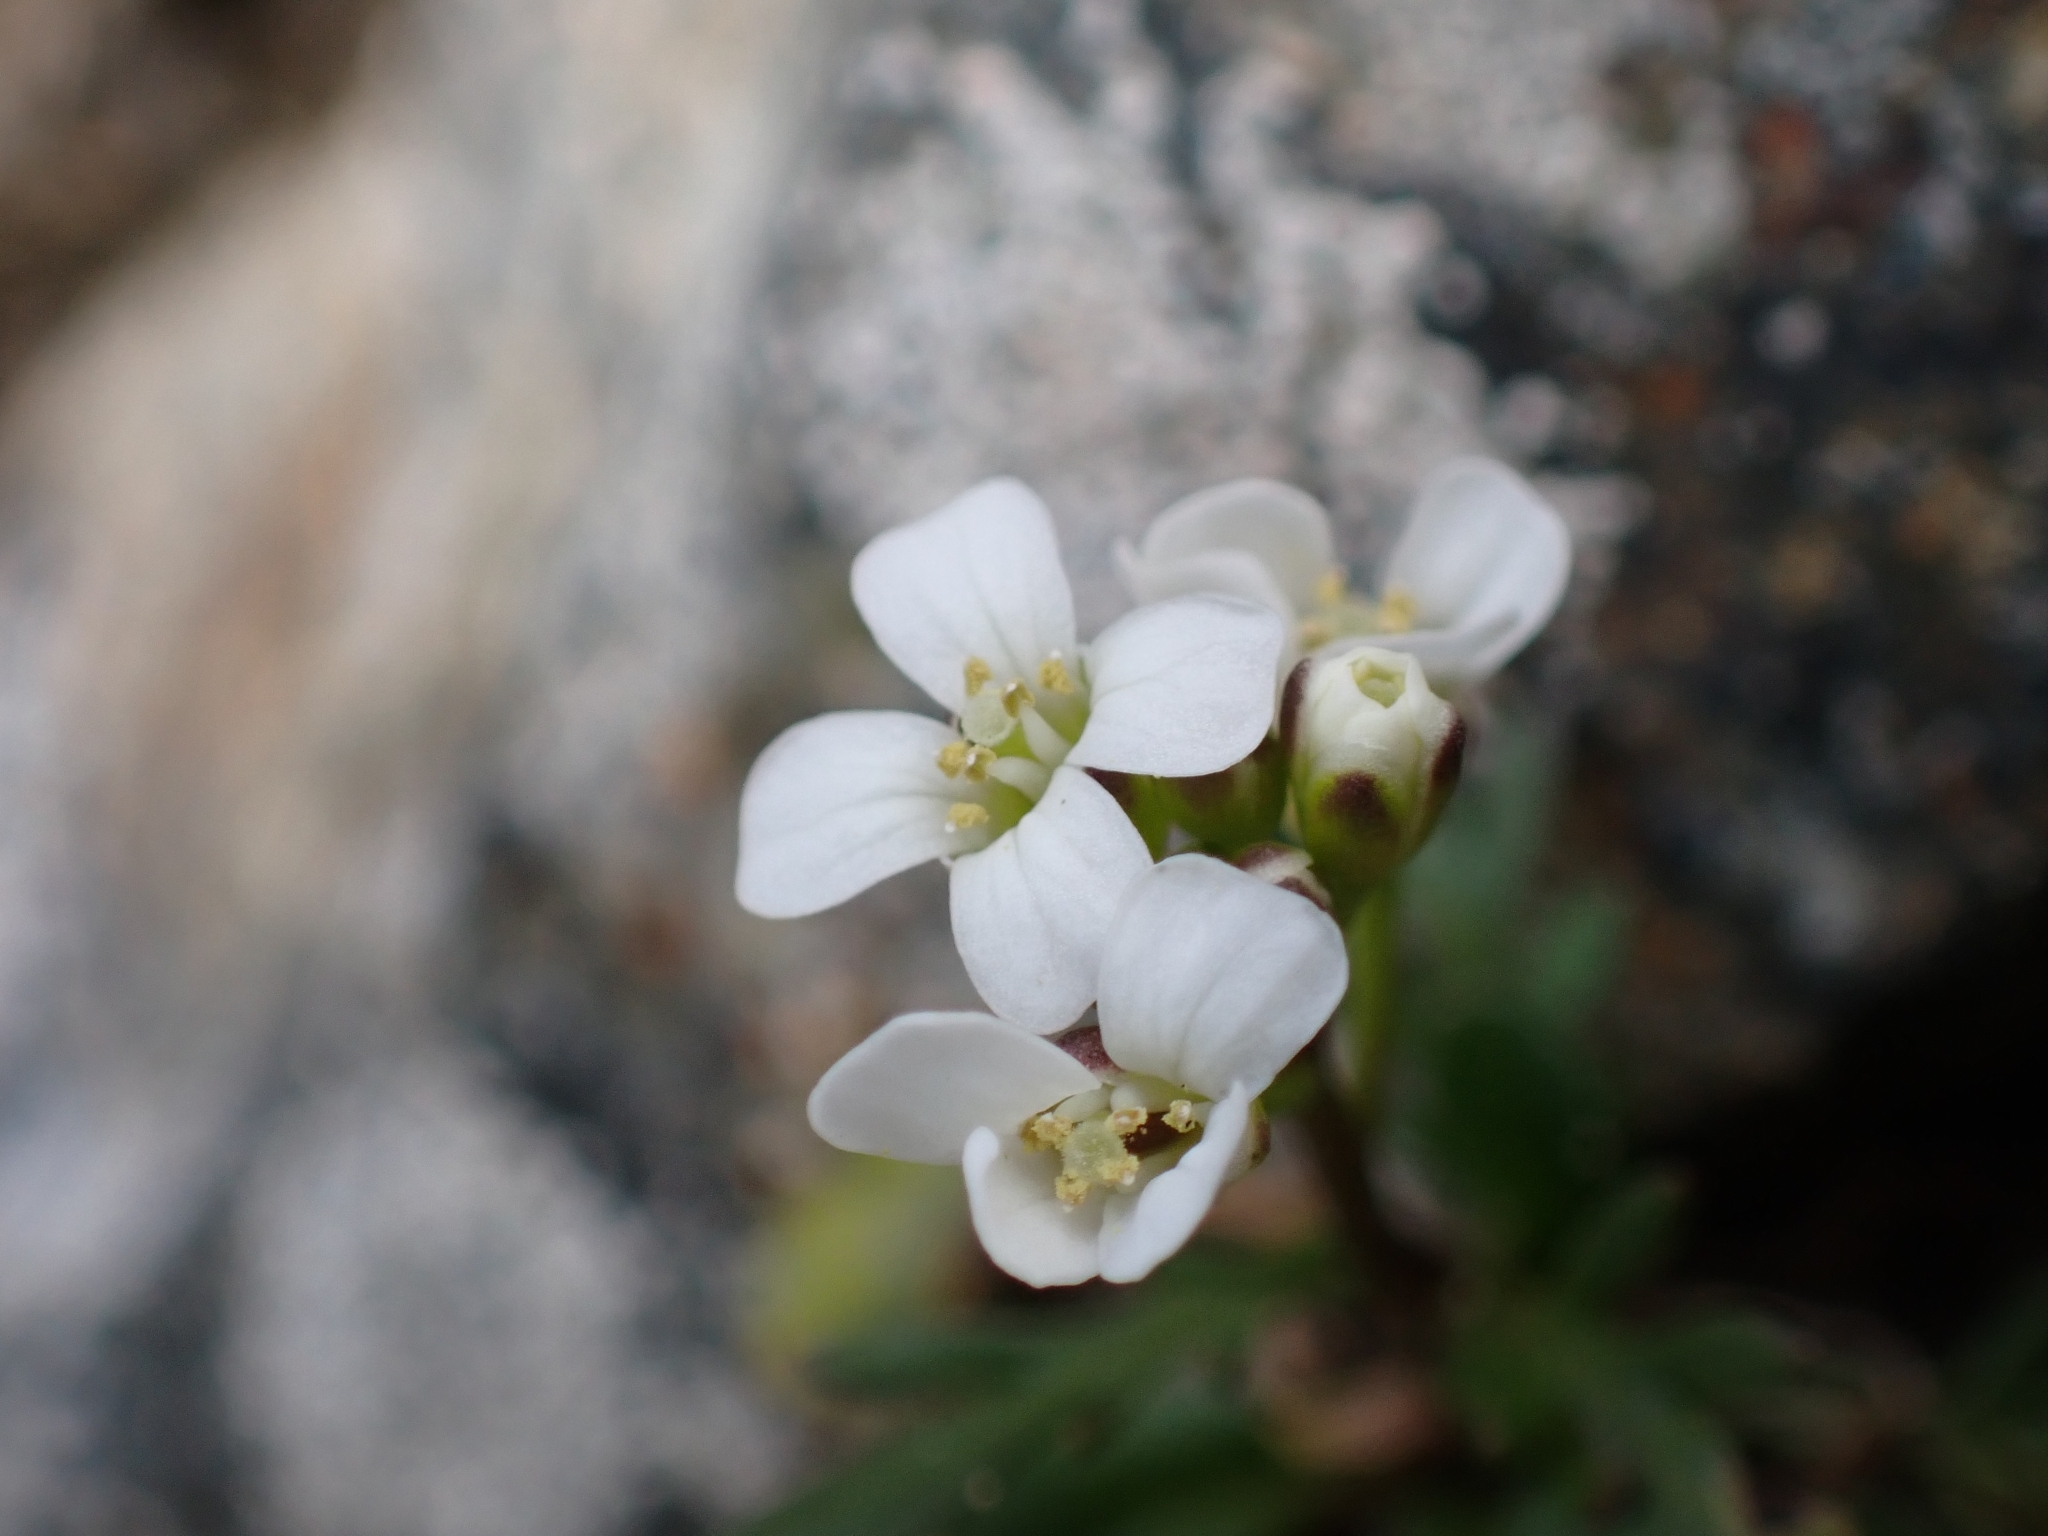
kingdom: Plantae
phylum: Tracheophyta
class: Magnoliopsida
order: Brassicales
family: Brassicaceae
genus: Cardamine
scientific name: Cardamine resedifolia
